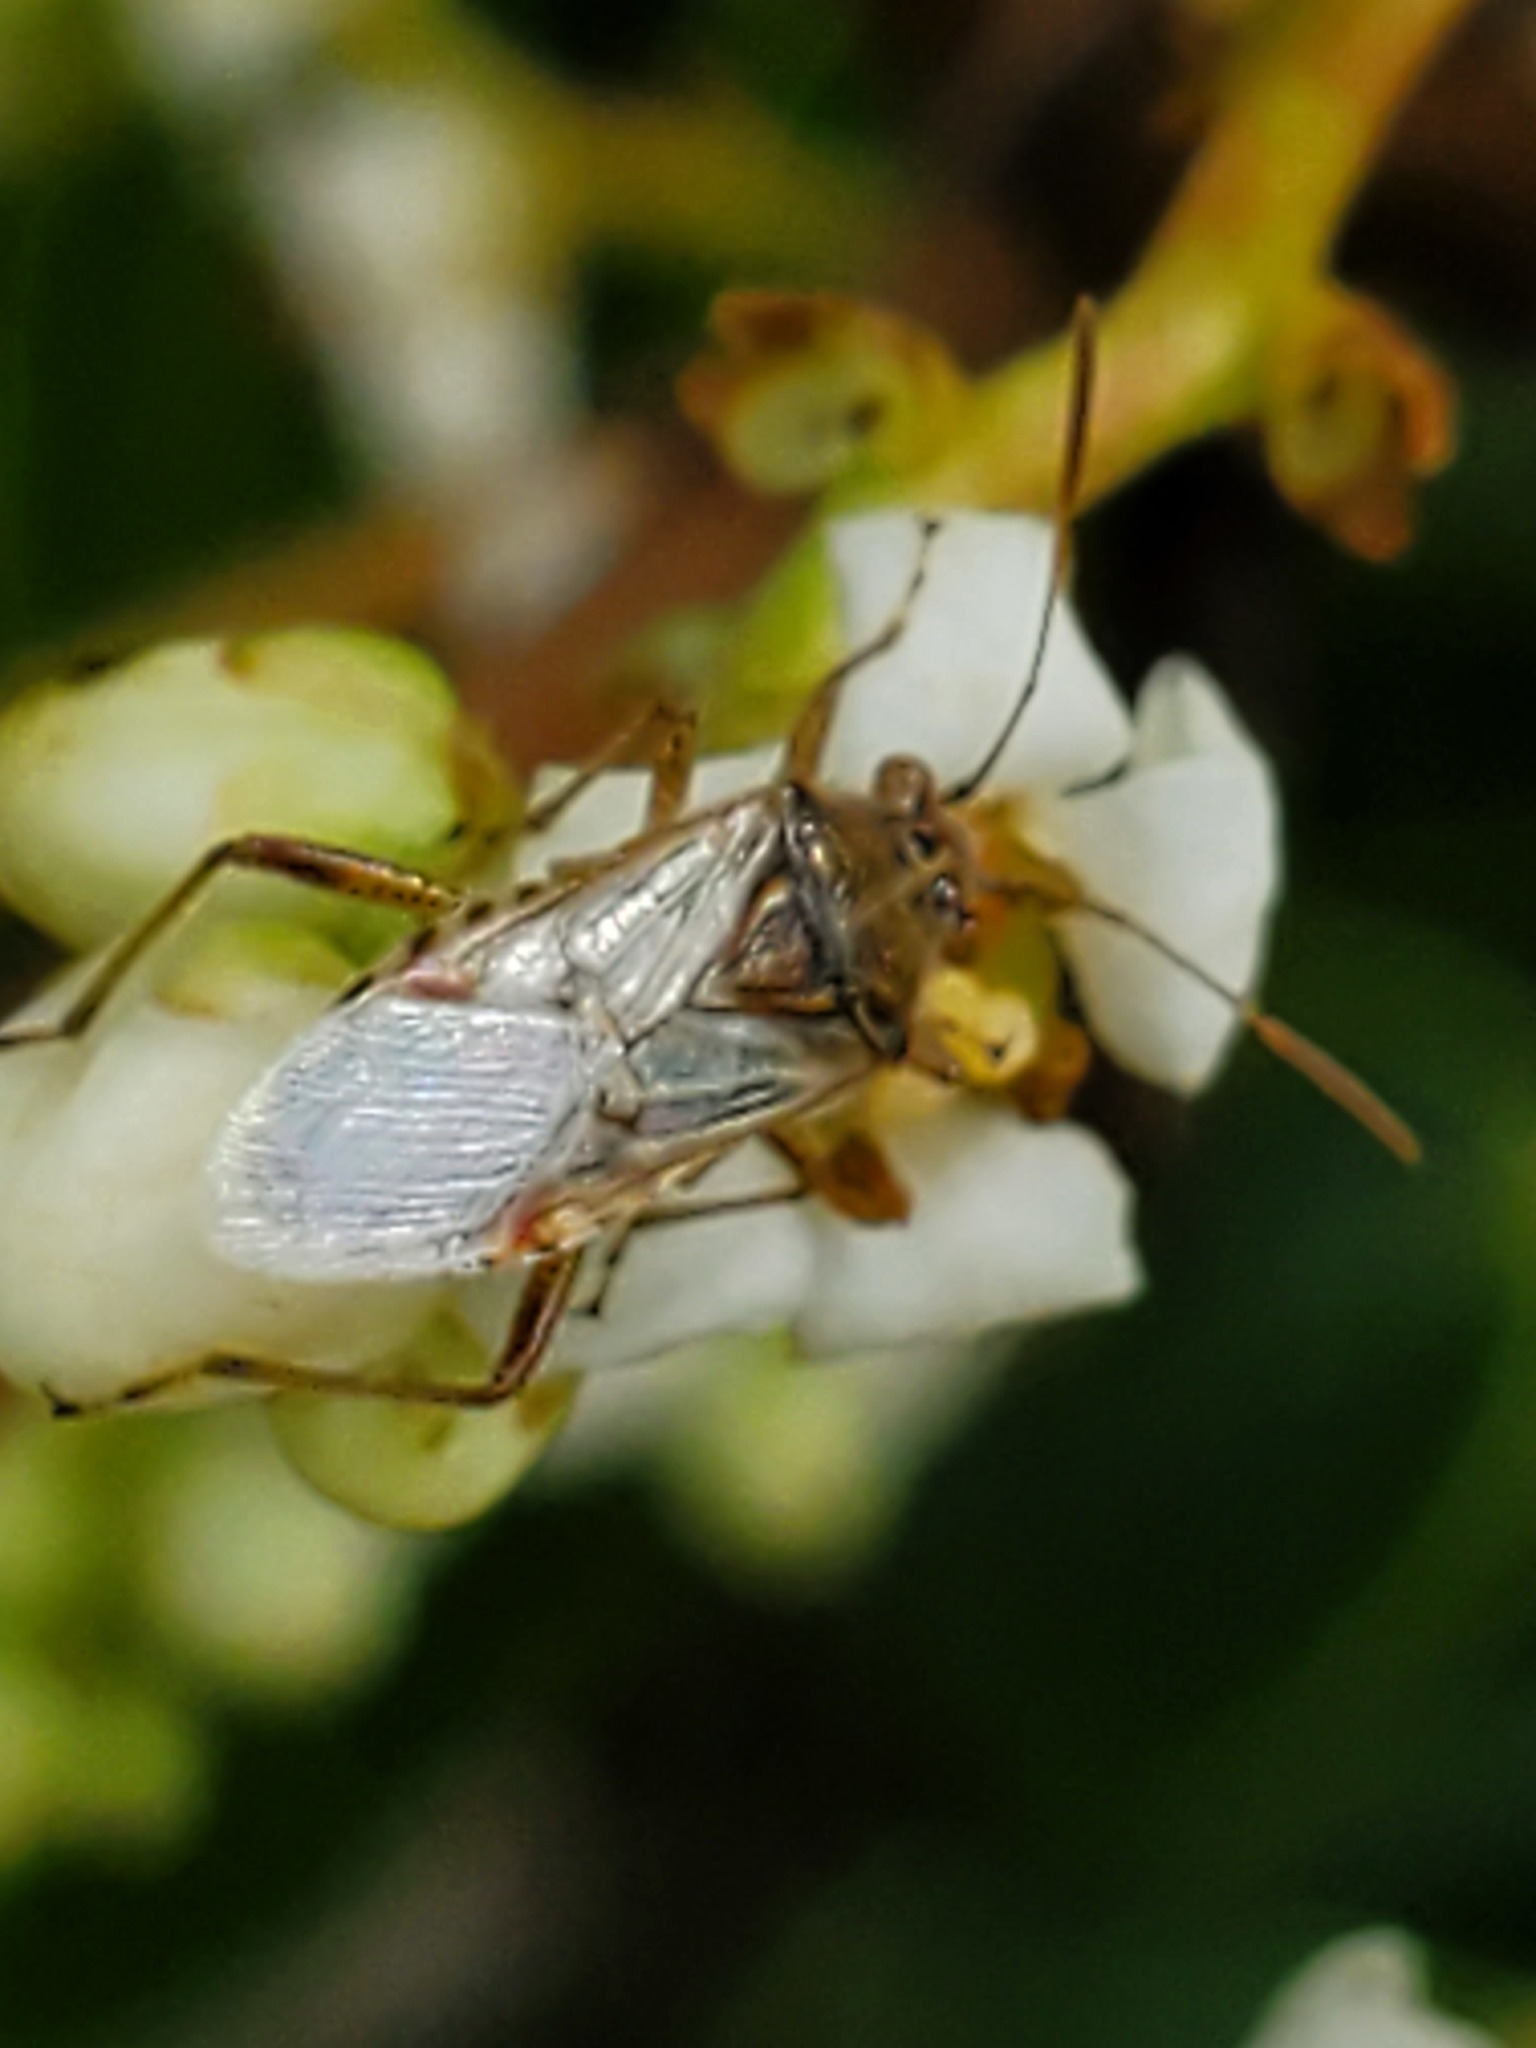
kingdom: Animalia
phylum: Arthropoda
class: Insecta
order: Hemiptera
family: Rhopalidae
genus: Liorhyssus
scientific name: Liorhyssus hyalinus
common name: Scentless plant bug
